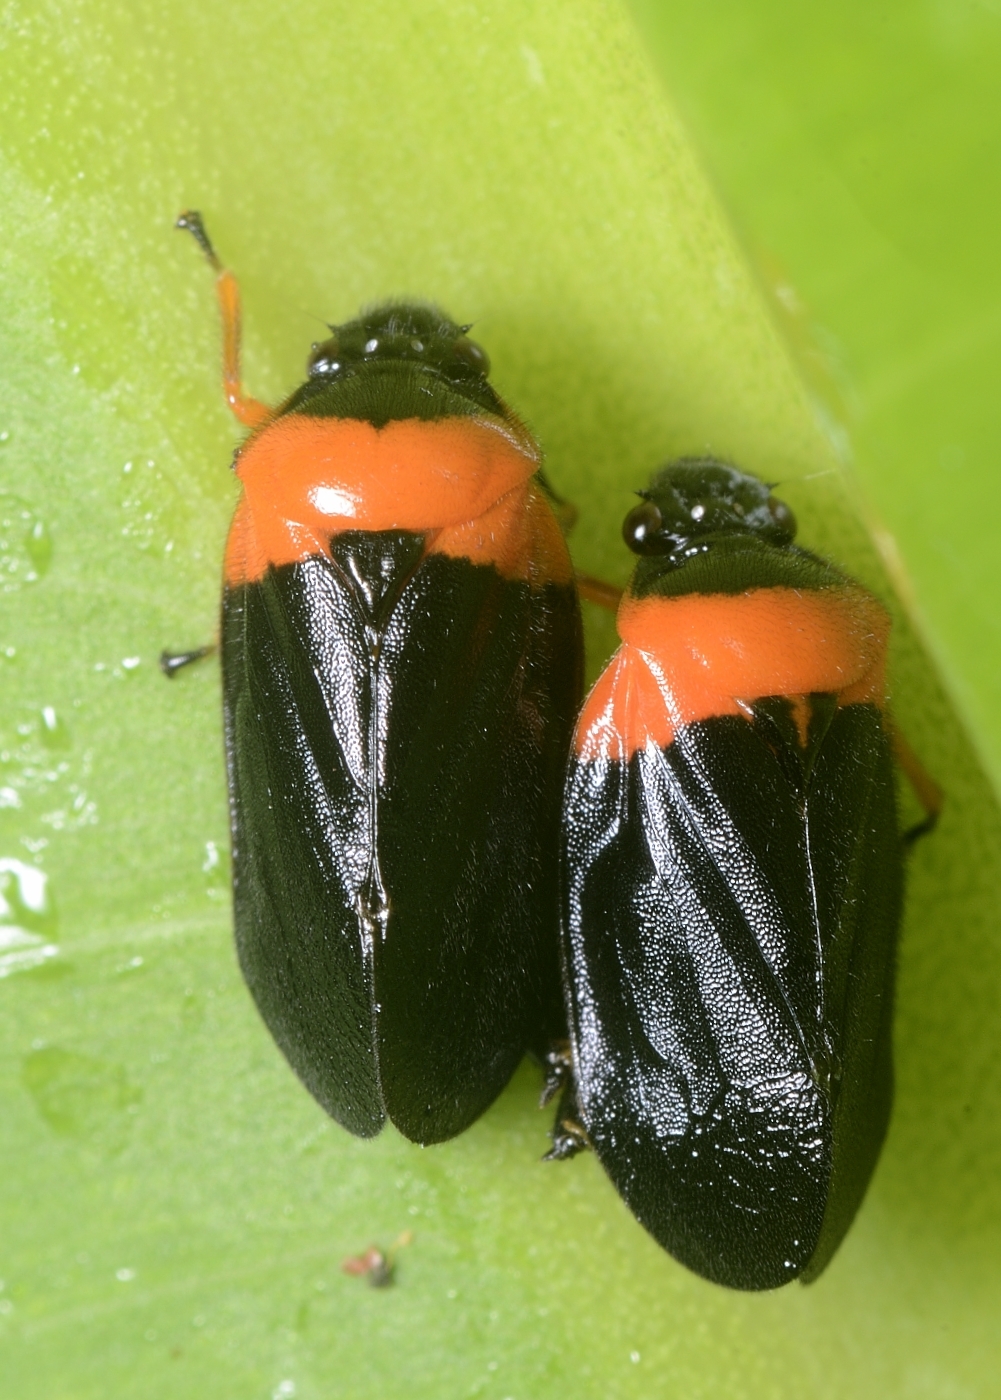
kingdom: Animalia
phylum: Arthropoda
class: Insecta
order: Hemiptera
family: Cercopidae
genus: Phymatostetha
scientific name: Phymatostetha deschampsi
